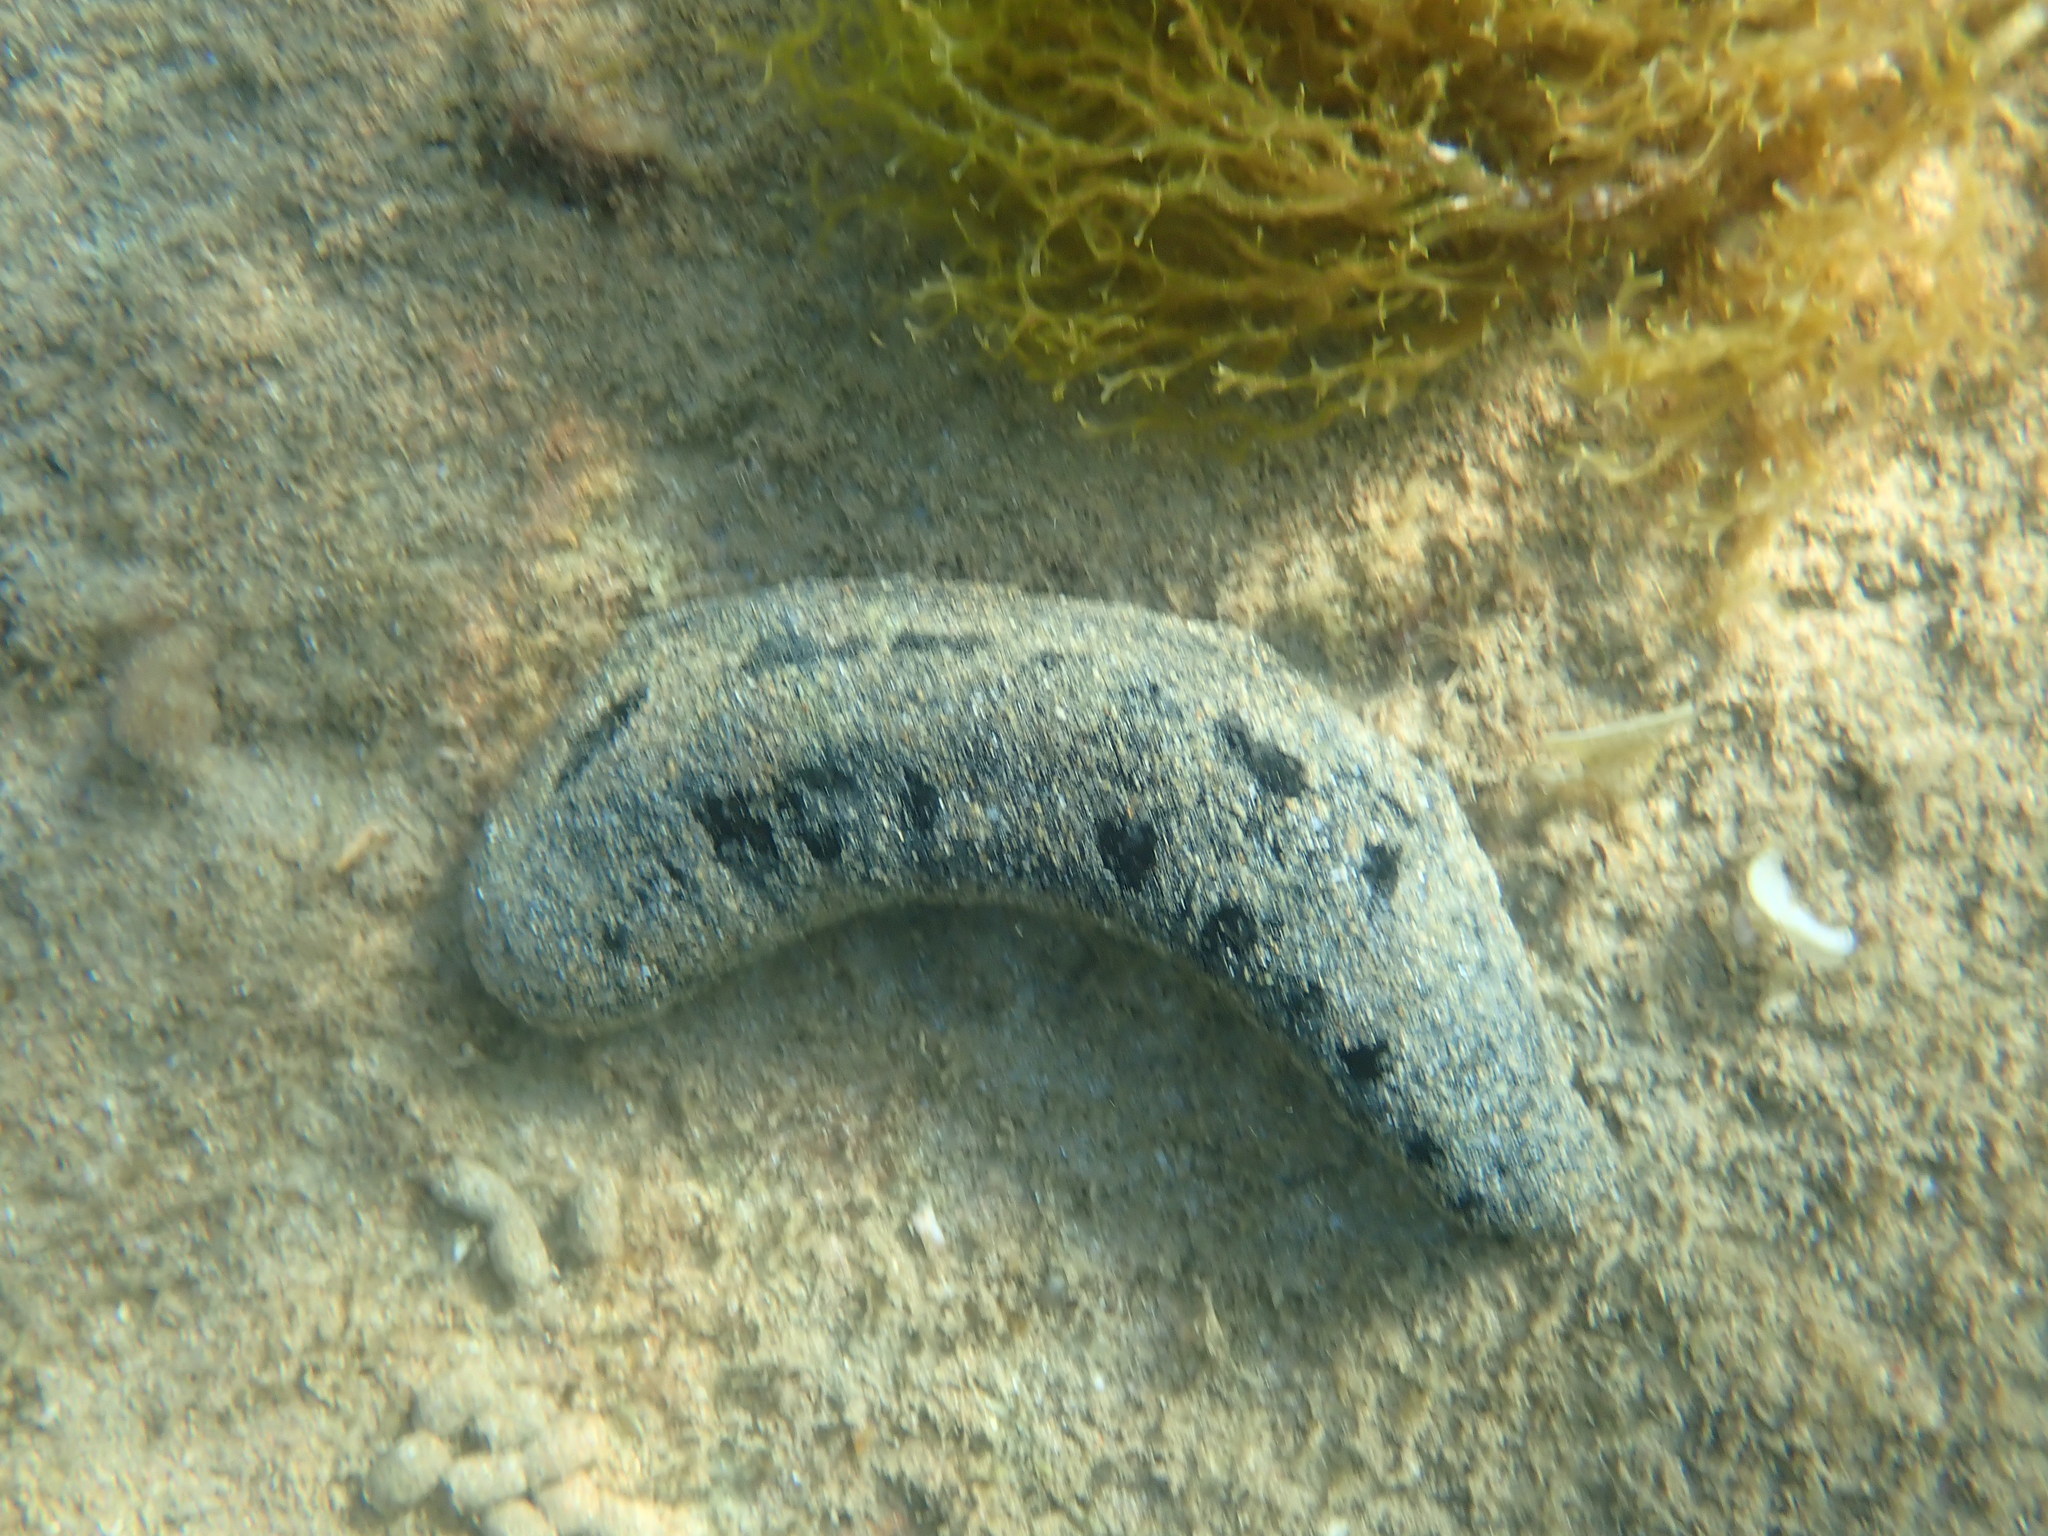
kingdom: Animalia
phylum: Echinodermata
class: Holothuroidea
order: Holothuriida
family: Holothuriidae
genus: Holothuria
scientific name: Holothuria atra
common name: Lollyfish
